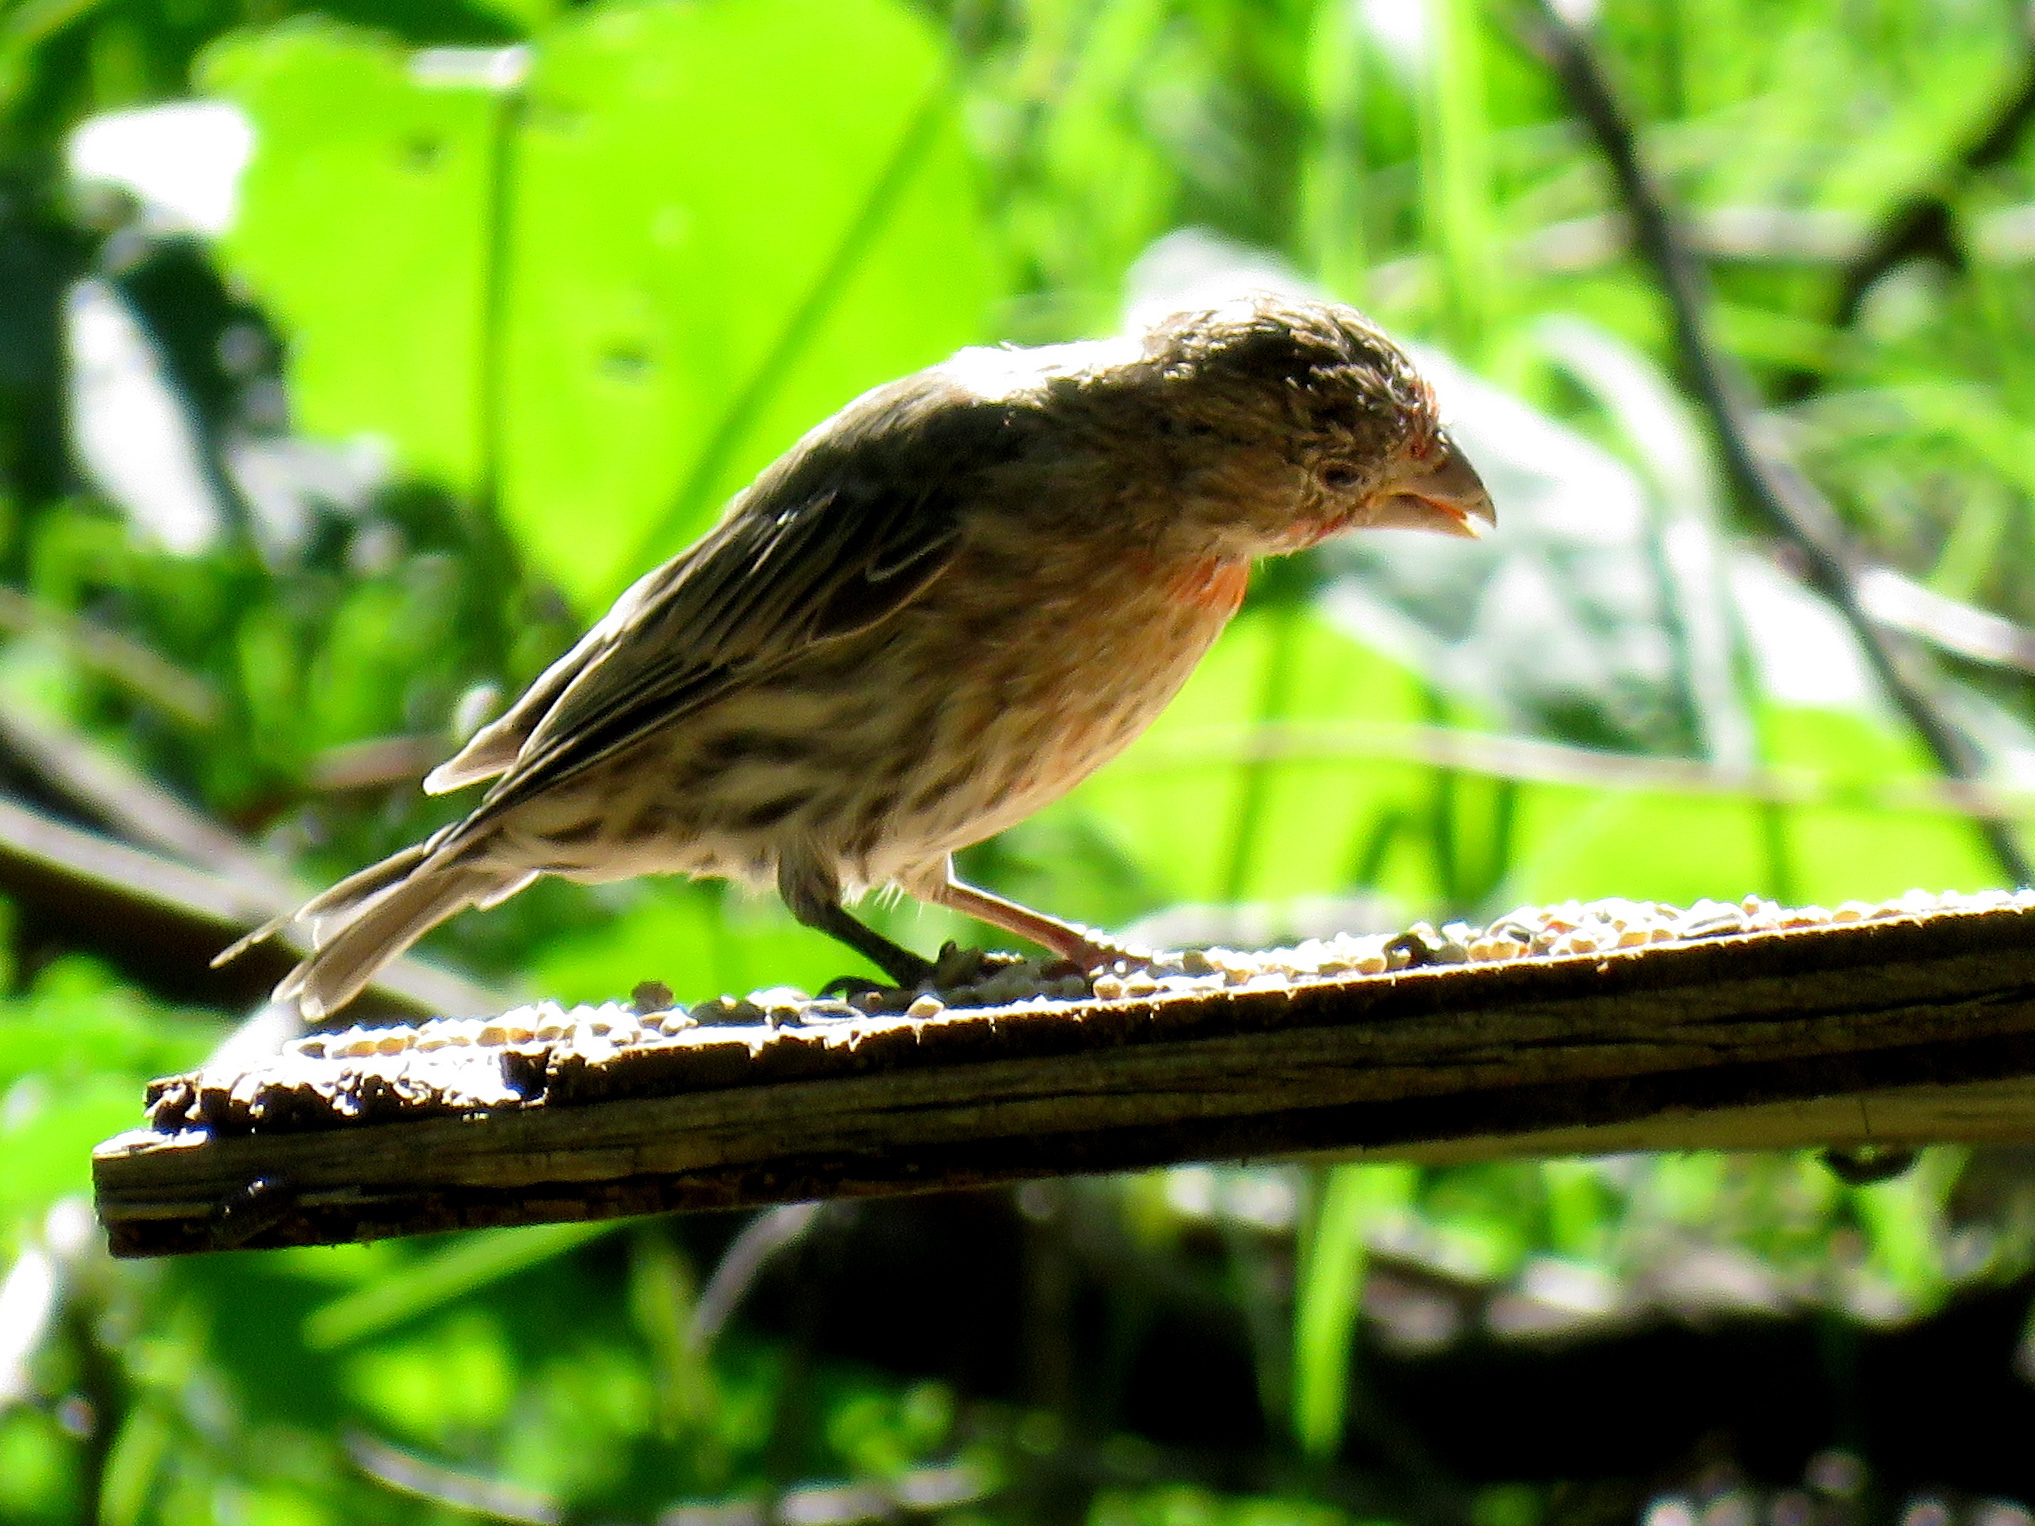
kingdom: Animalia
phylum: Chordata
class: Aves
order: Passeriformes
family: Fringillidae
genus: Haemorhous
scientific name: Haemorhous mexicanus
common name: House finch
